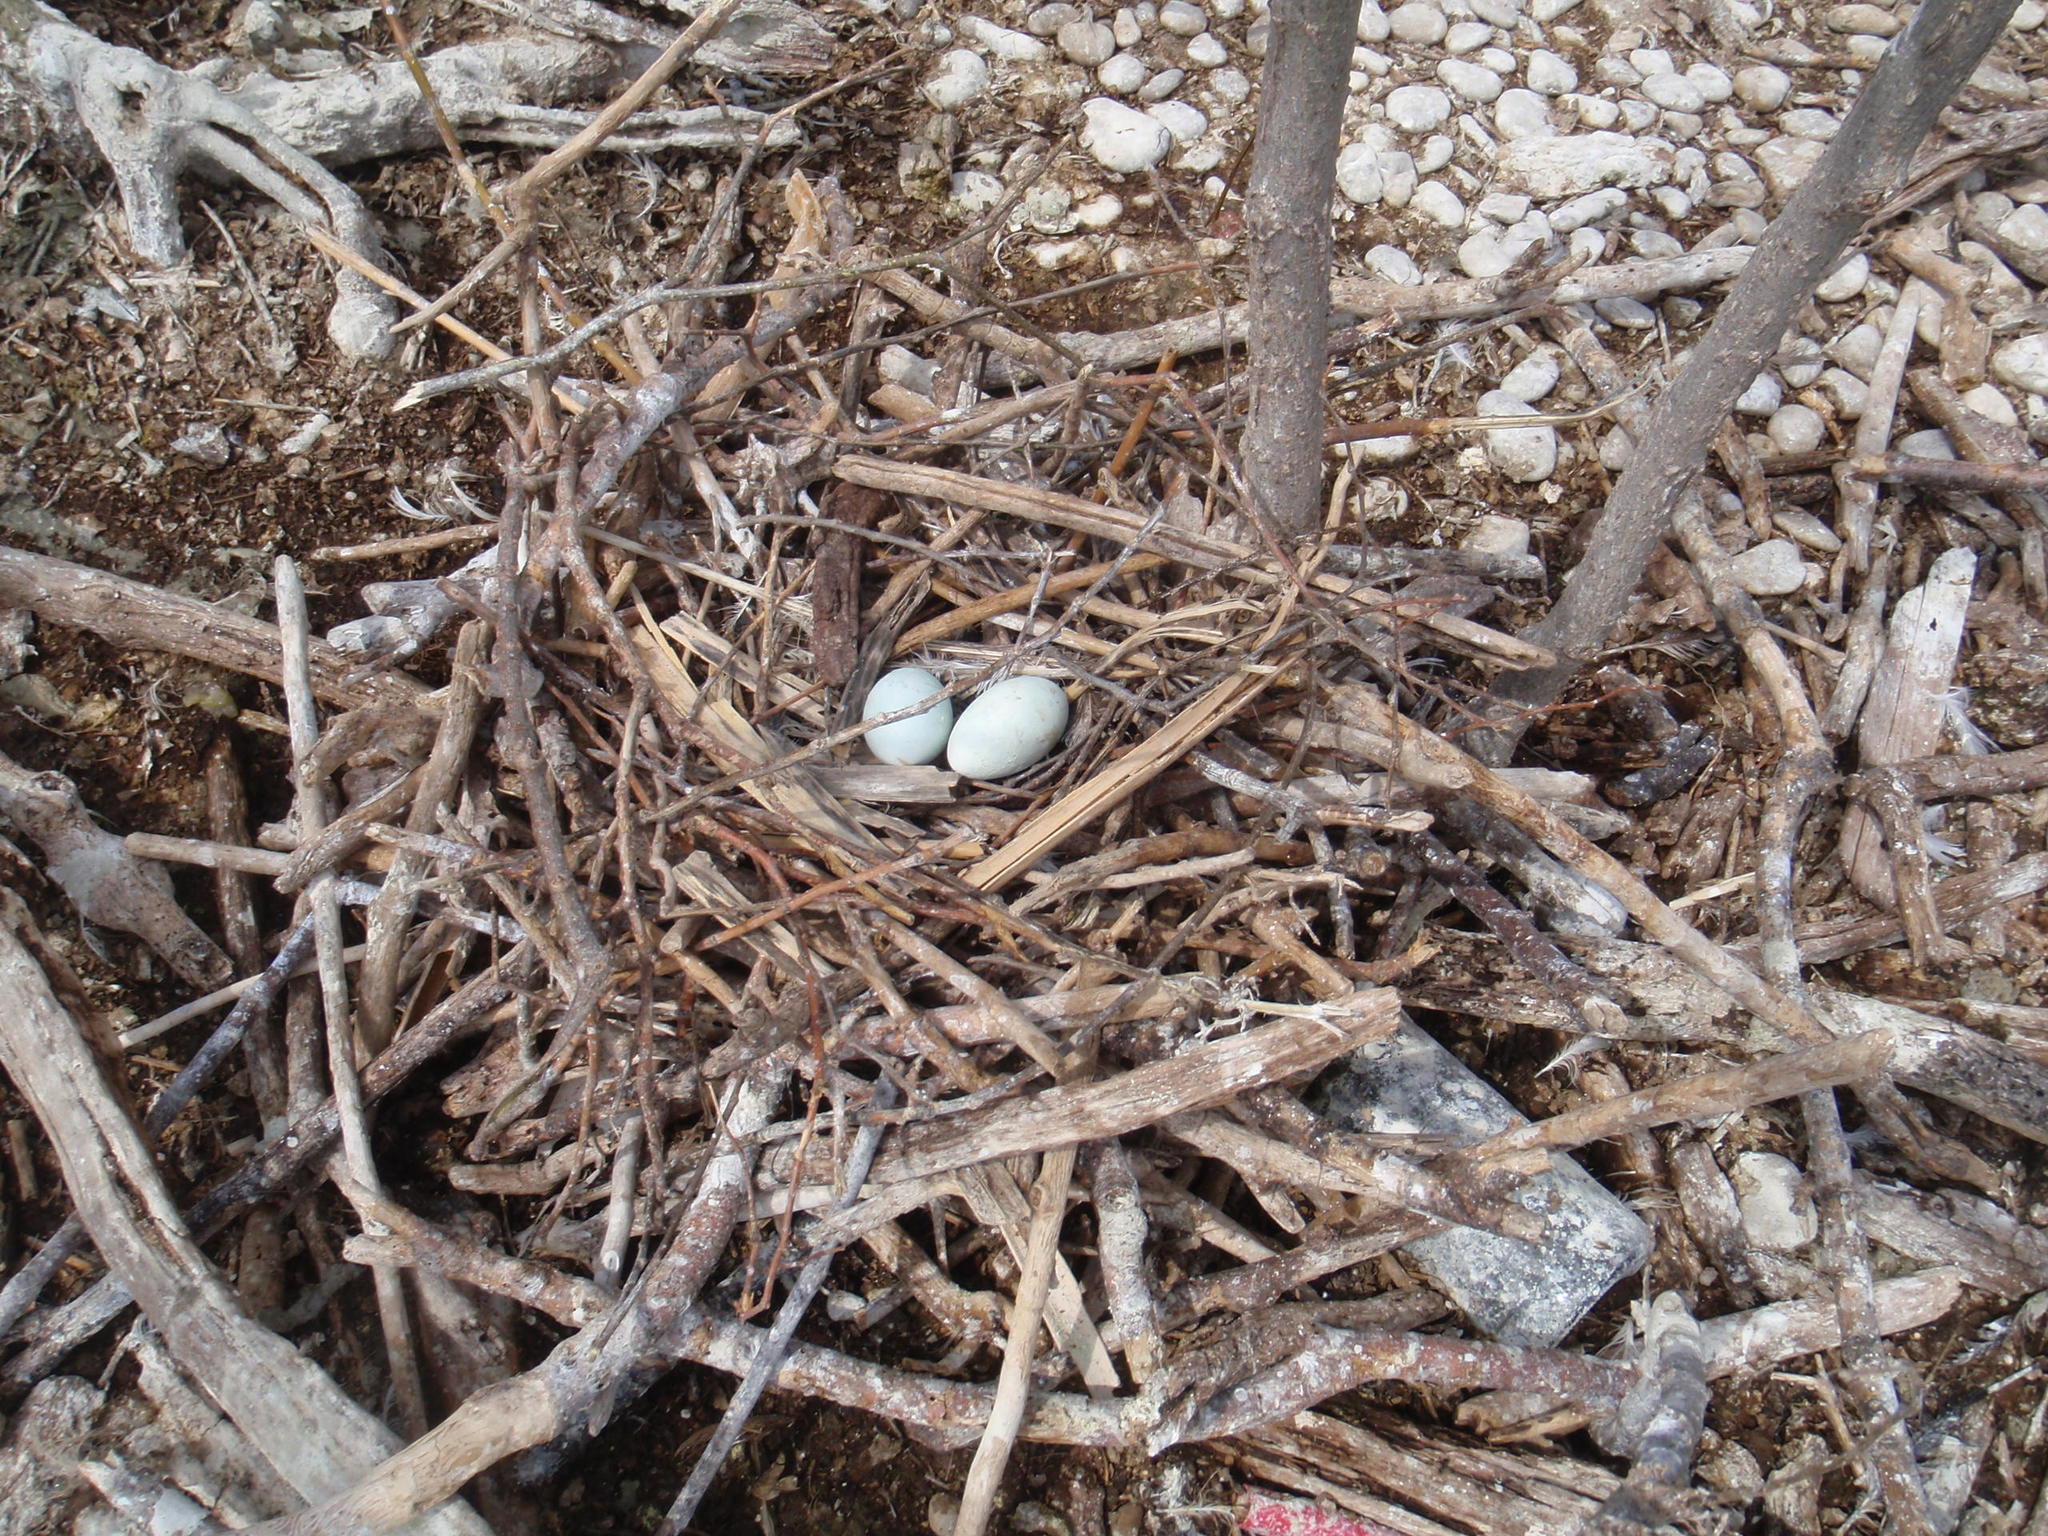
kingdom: Animalia
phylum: Chordata
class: Aves
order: Suliformes
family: Phalacrocoracidae
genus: Phalacrocorax
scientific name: Phalacrocorax auritus
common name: Double-crested cormorant
